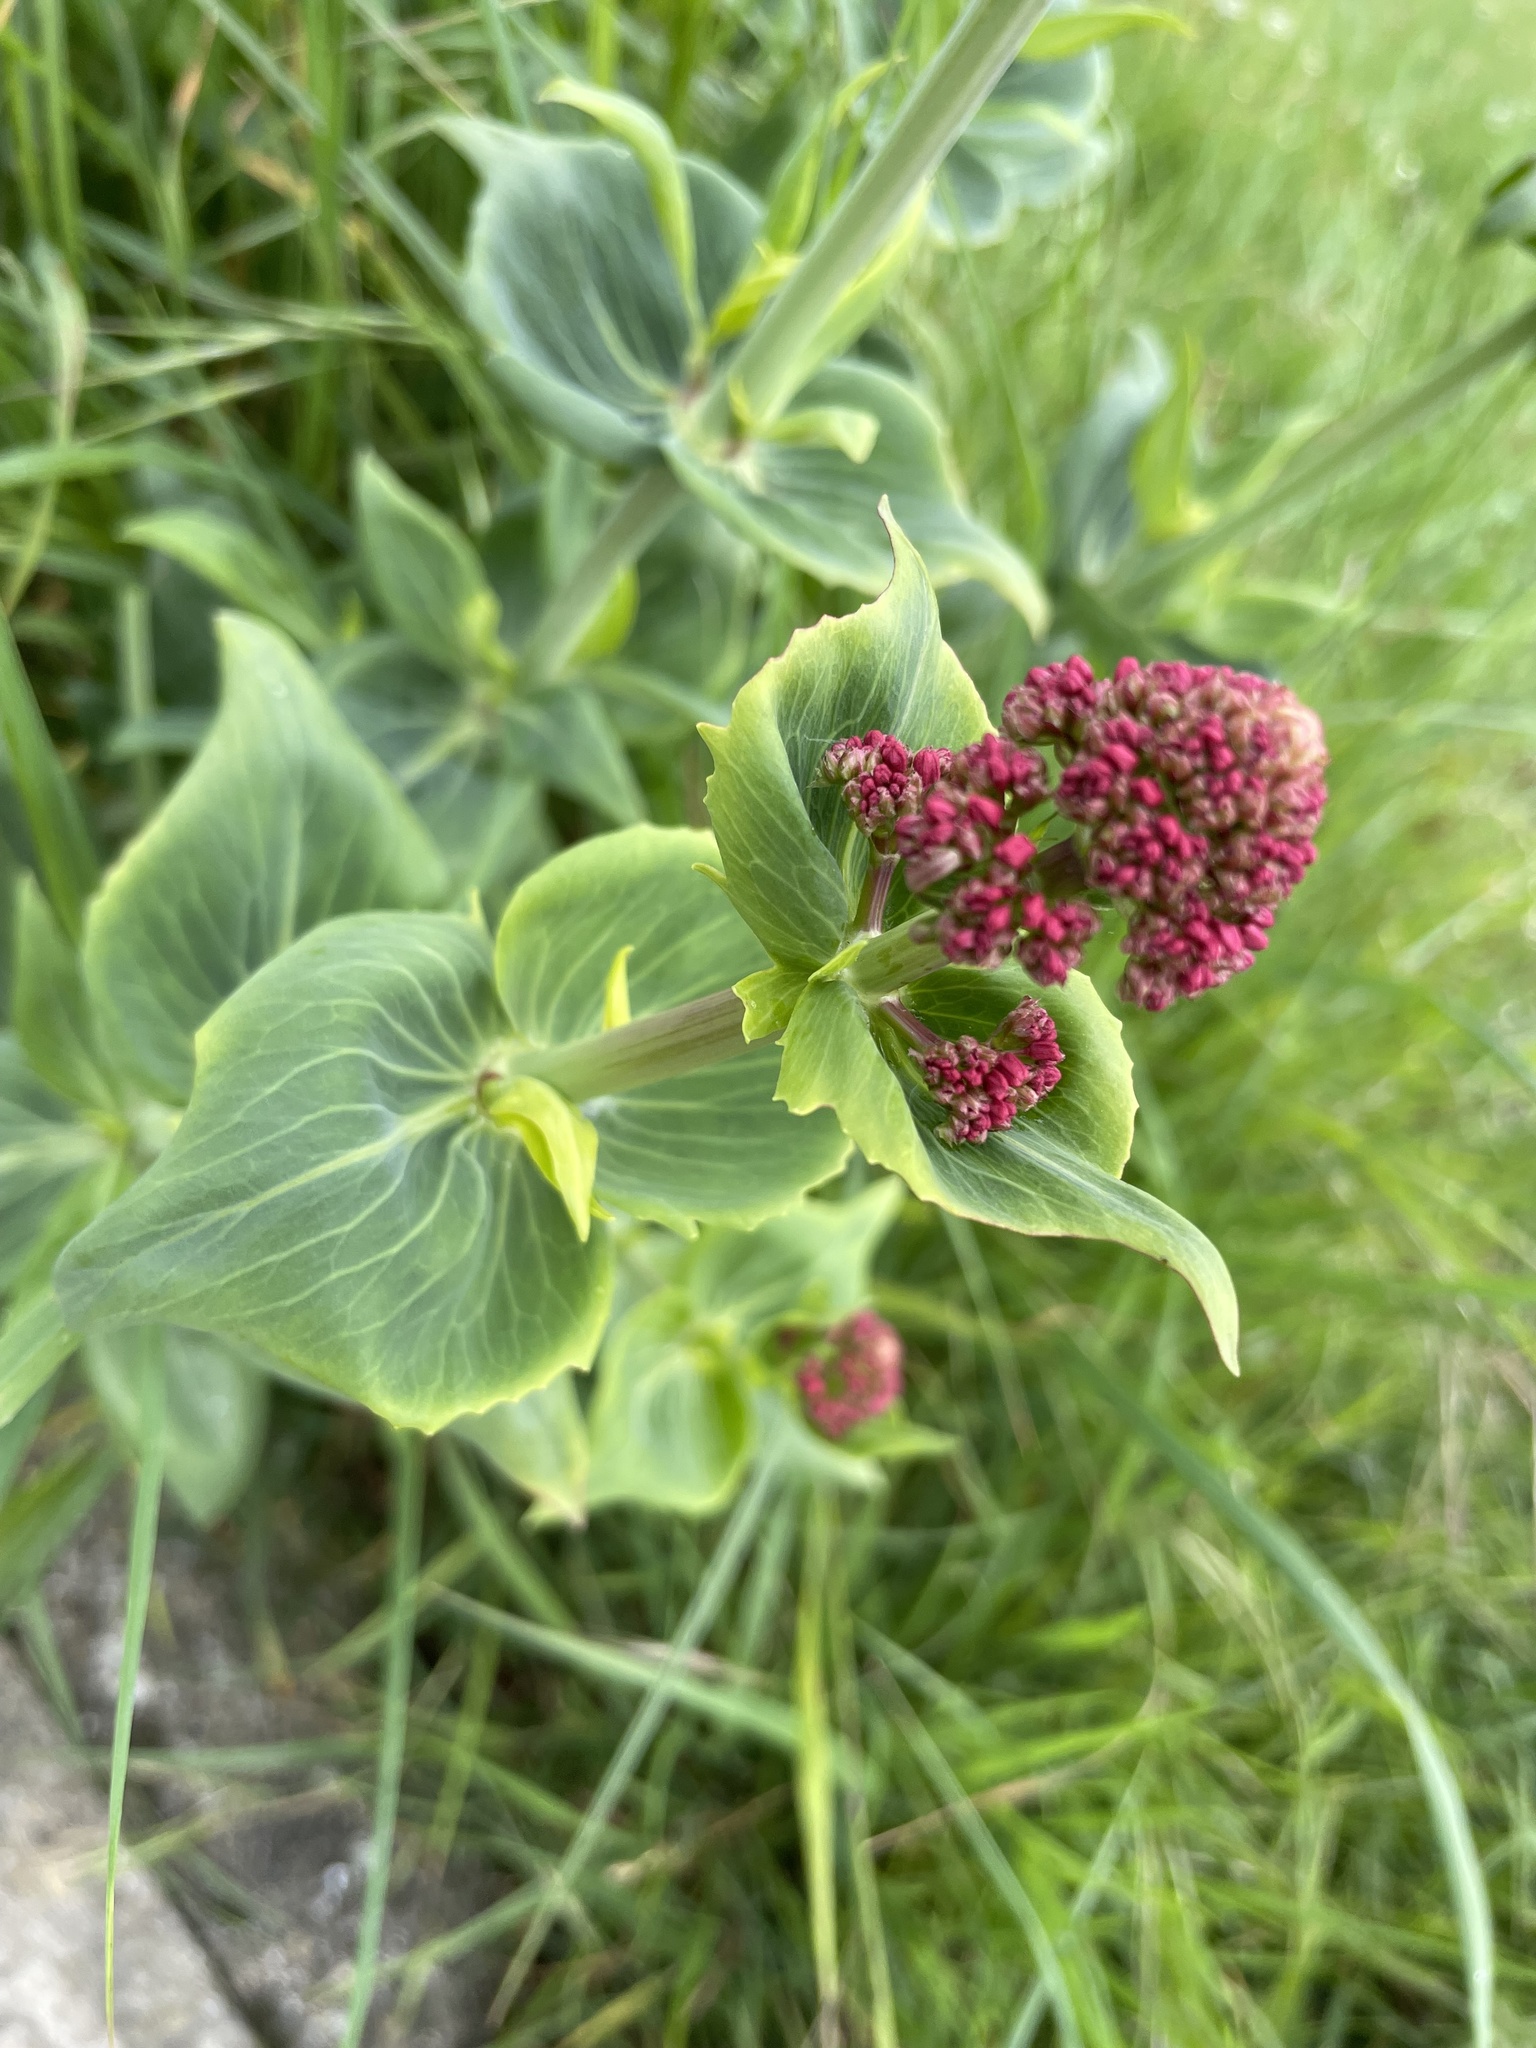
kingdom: Plantae
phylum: Tracheophyta
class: Magnoliopsida
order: Dipsacales
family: Caprifoliaceae
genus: Centranthus
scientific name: Centranthus ruber
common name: Red valerian
